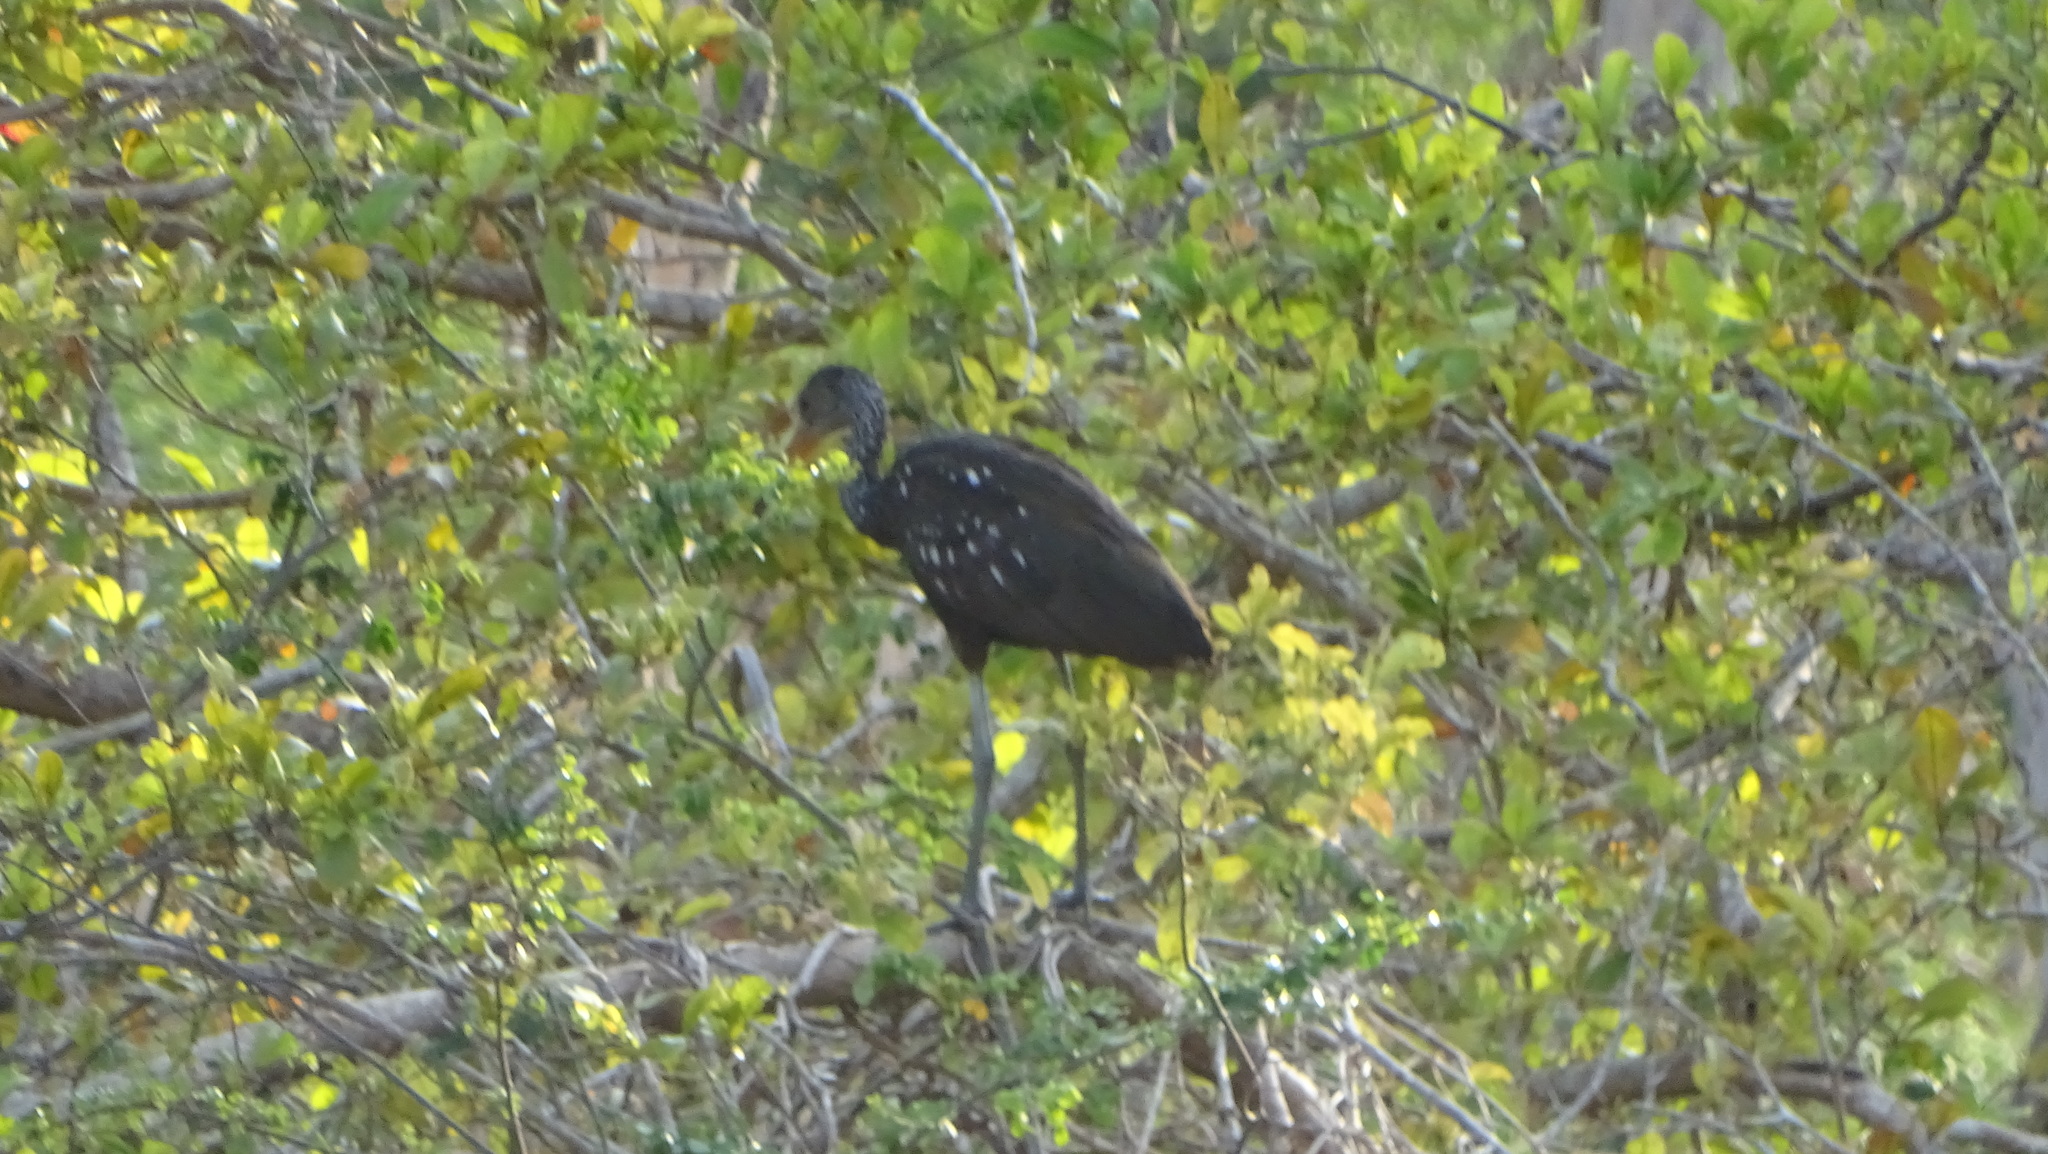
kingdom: Animalia
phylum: Chordata
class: Aves
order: Gruiformes
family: Aramidae
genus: Aramus
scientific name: Aramus guarauna
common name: Limpkin
